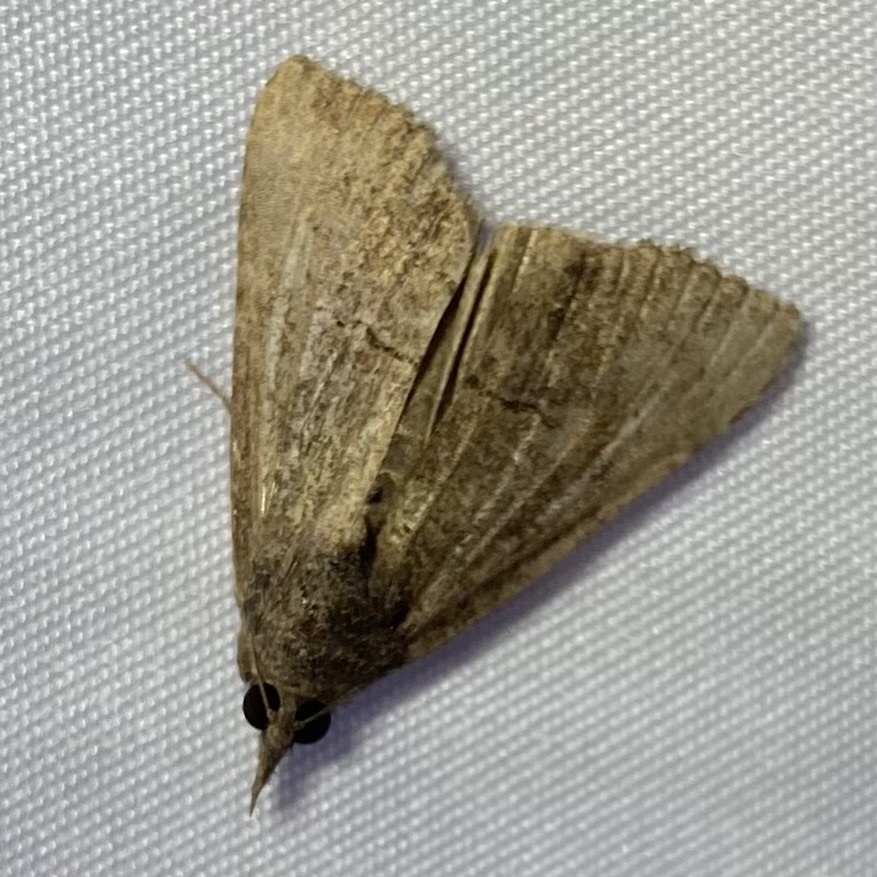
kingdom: Animalia
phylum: Arthropoda
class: Insecta
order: Lepidoptera
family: Erebidae
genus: Hypena
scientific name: Hypena scabra
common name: Green cloverworm
